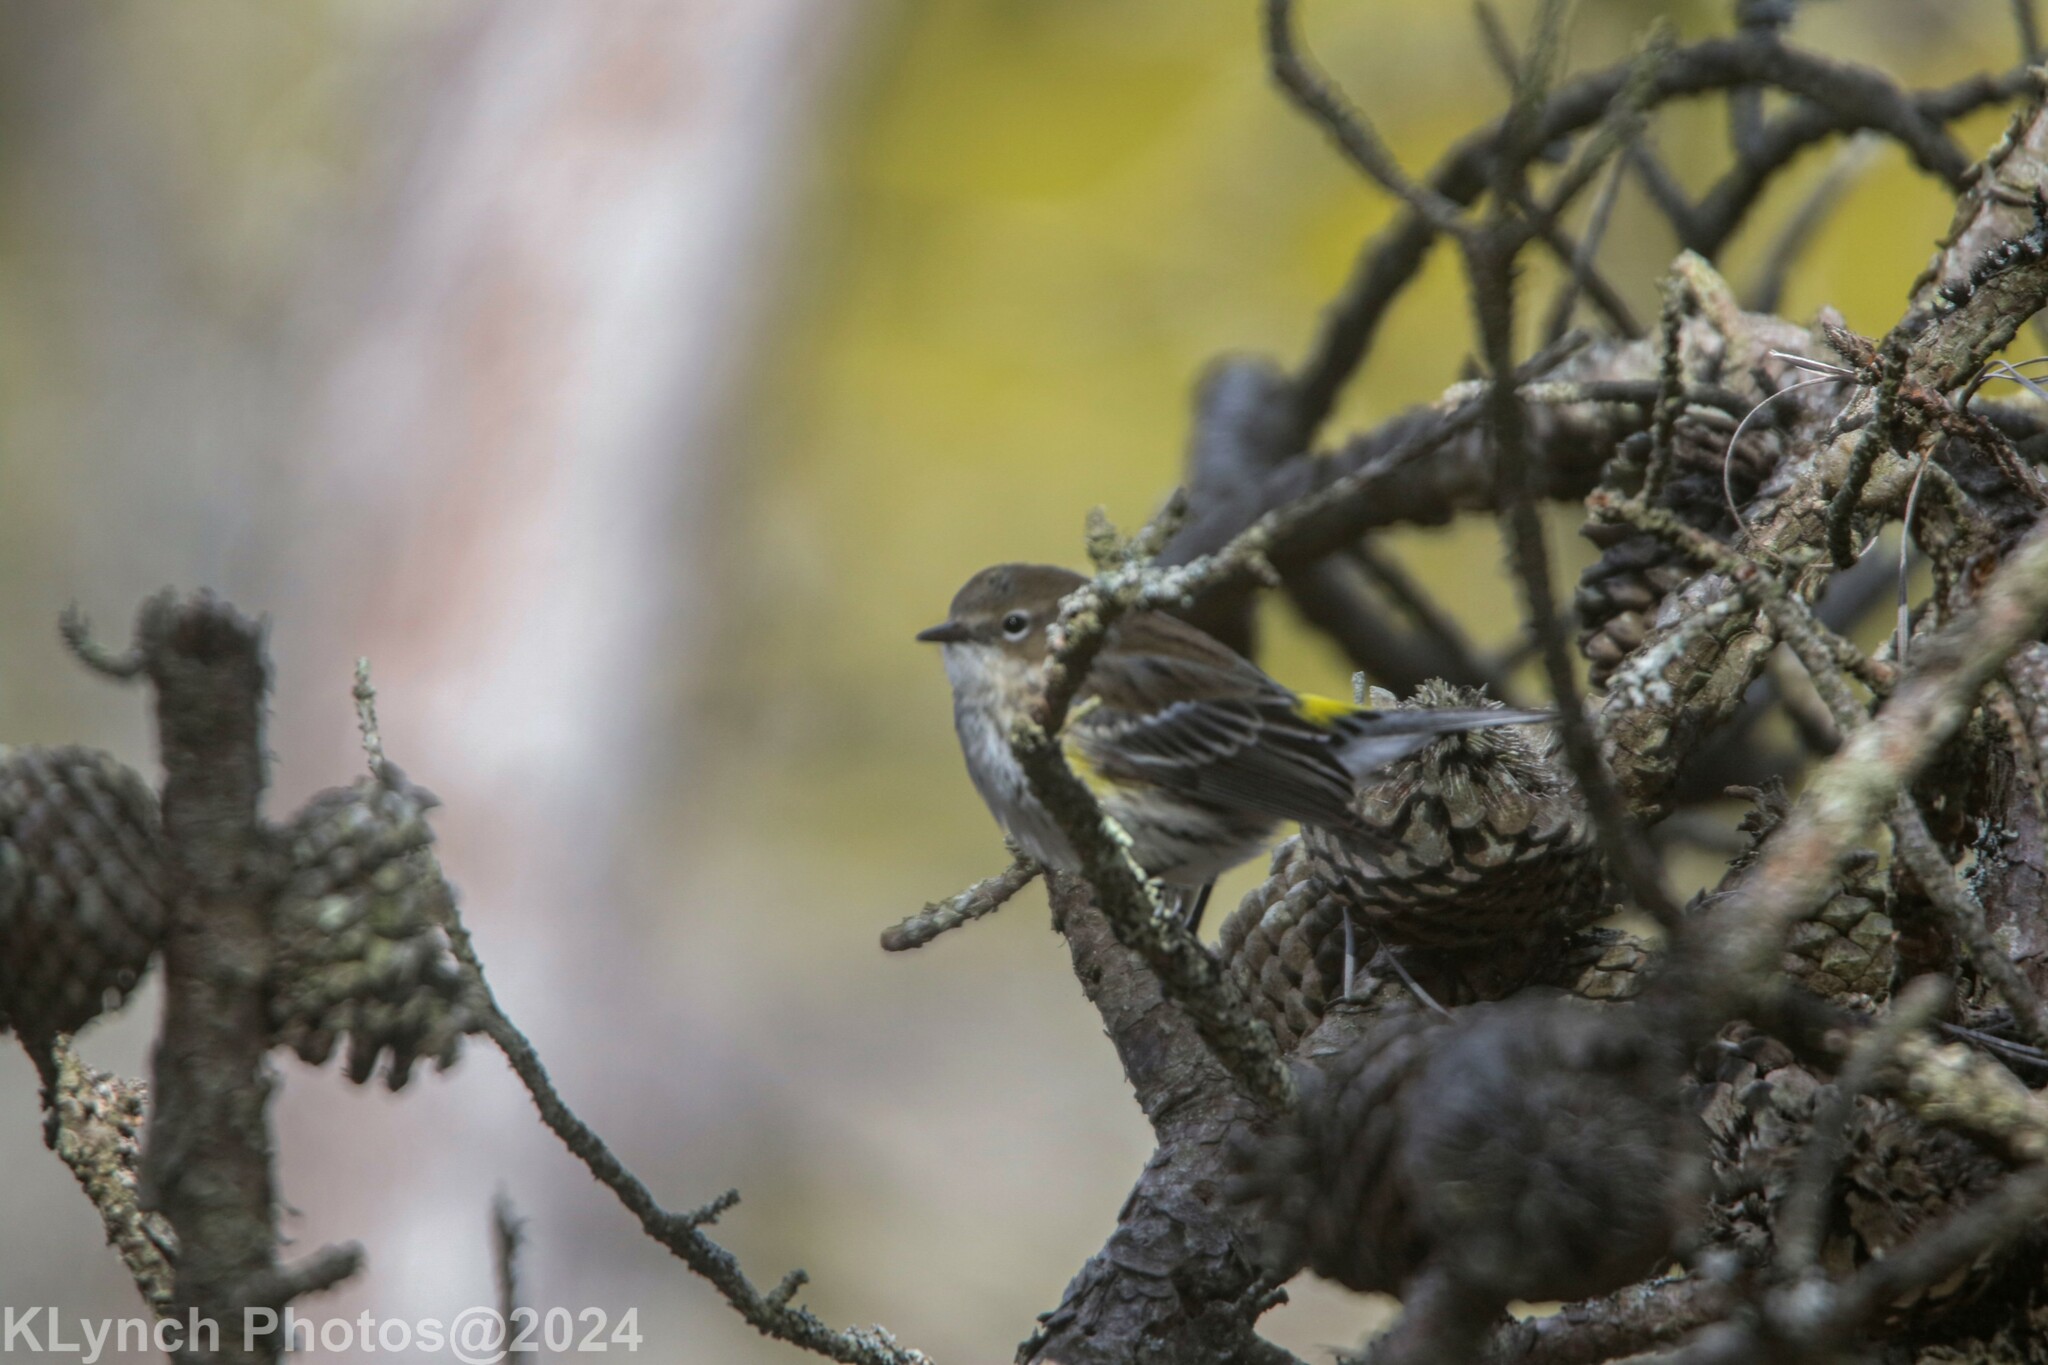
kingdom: Animalia
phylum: Chordata
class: Aves
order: Passeriformes
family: Parulidae
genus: Setophaga
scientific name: Setophaga coronata
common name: Myrtle warbler
